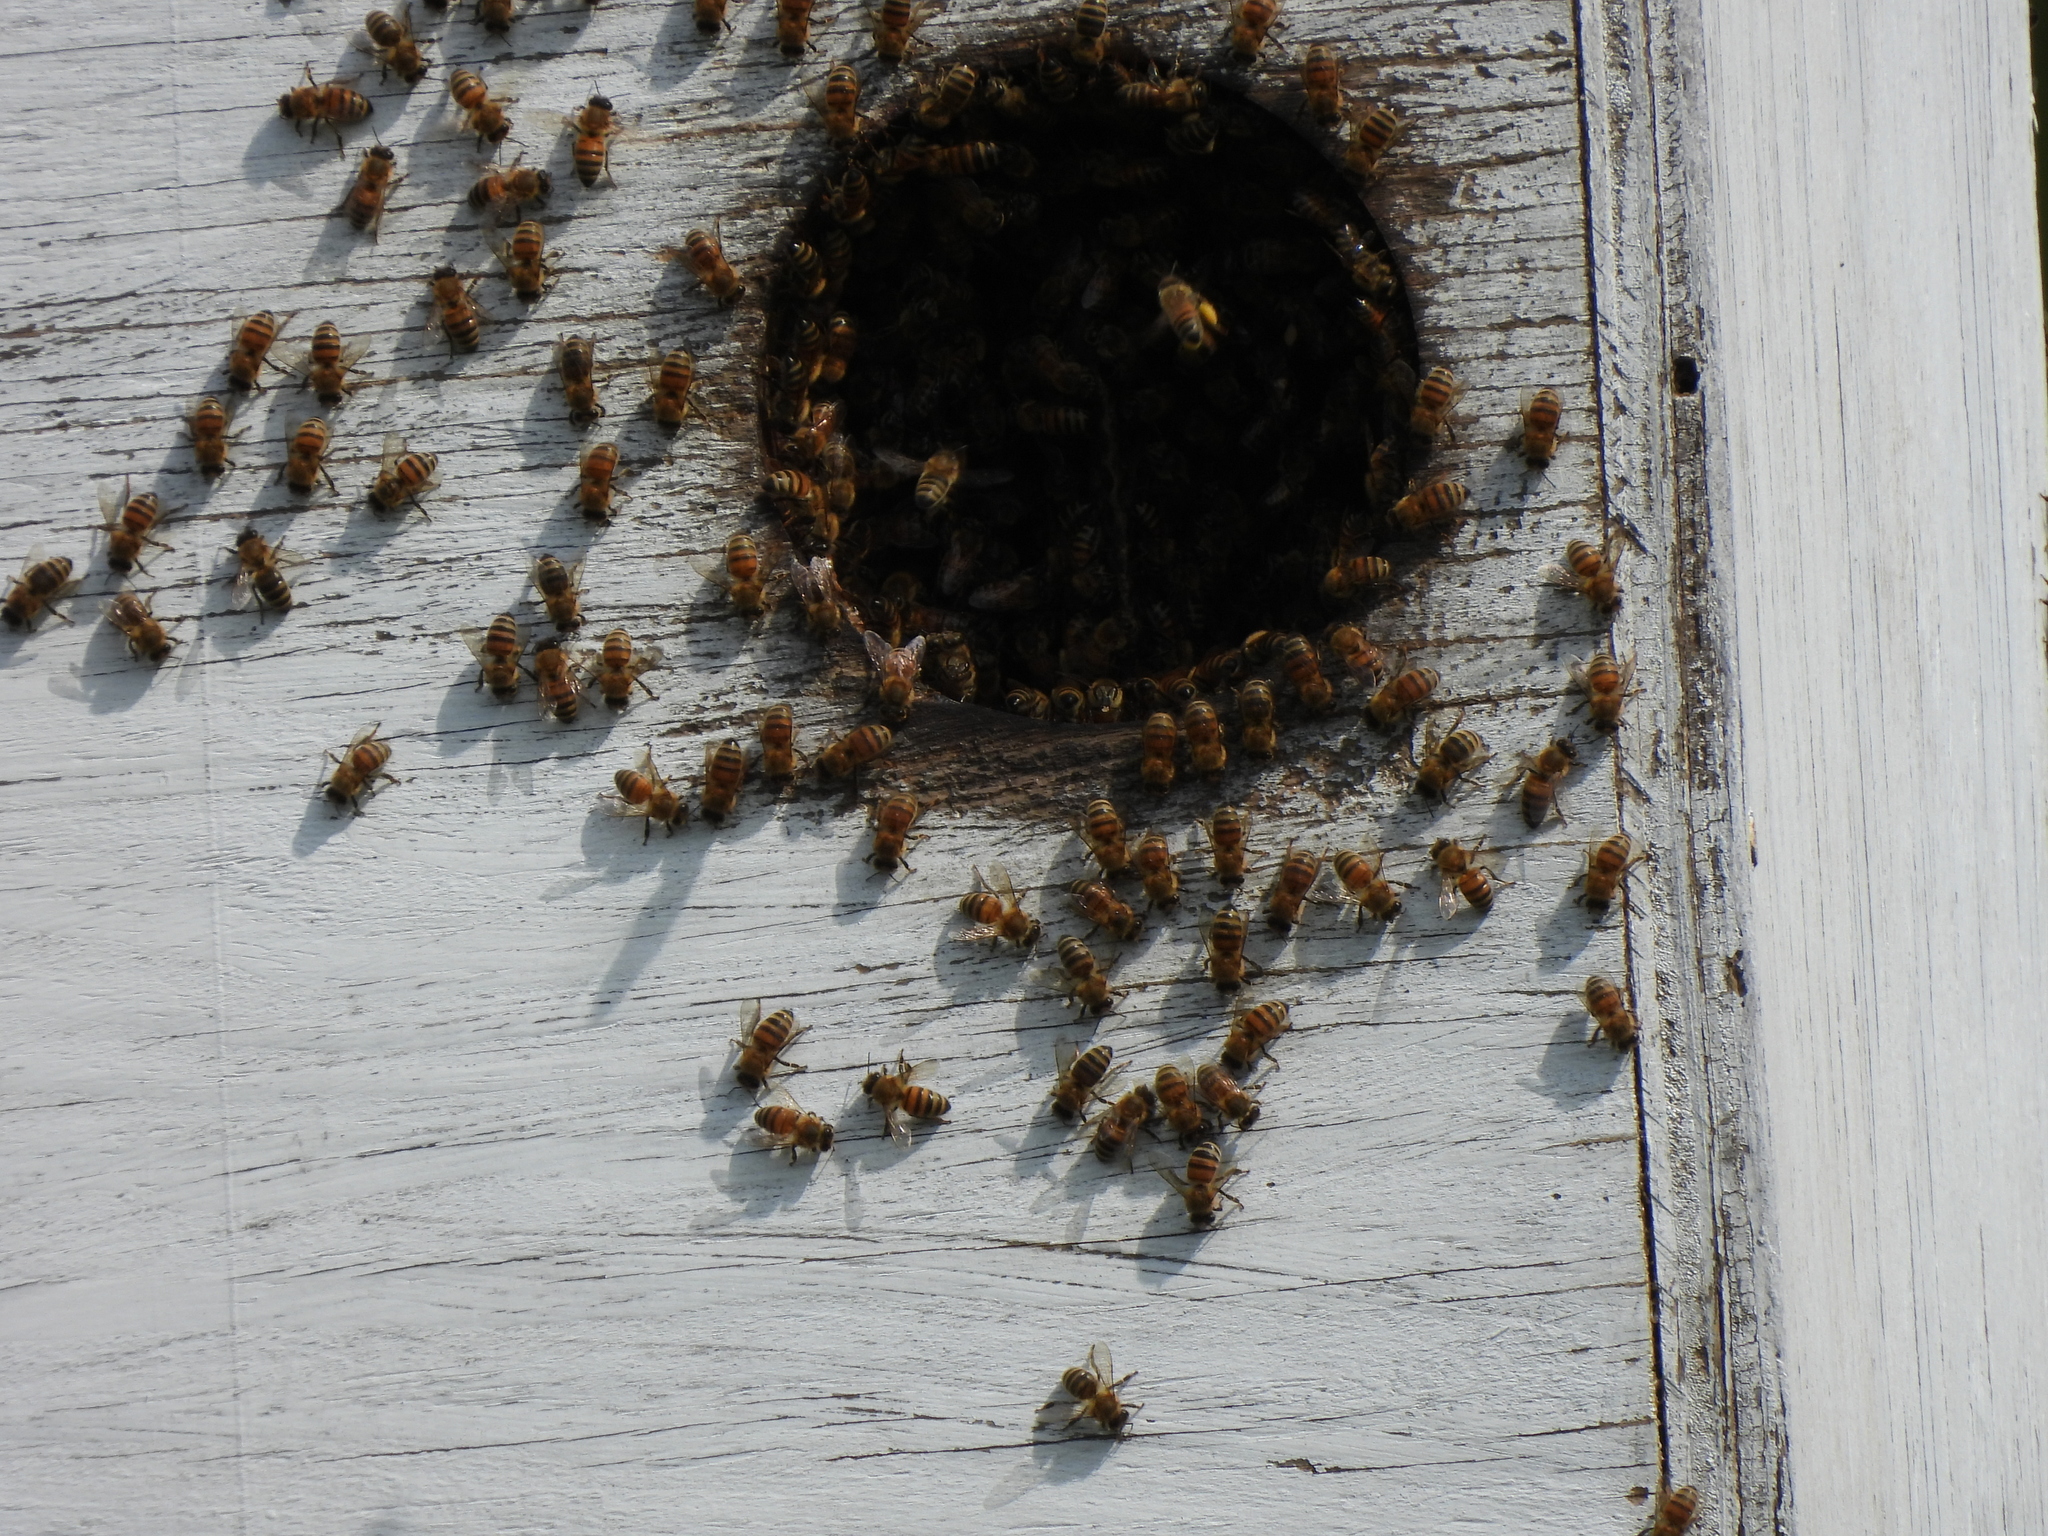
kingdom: Animalia
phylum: Arthropoda
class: Insecta
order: Hymenoptera
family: Apidae
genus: Apis
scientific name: Apis mellifera
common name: Honey bee
